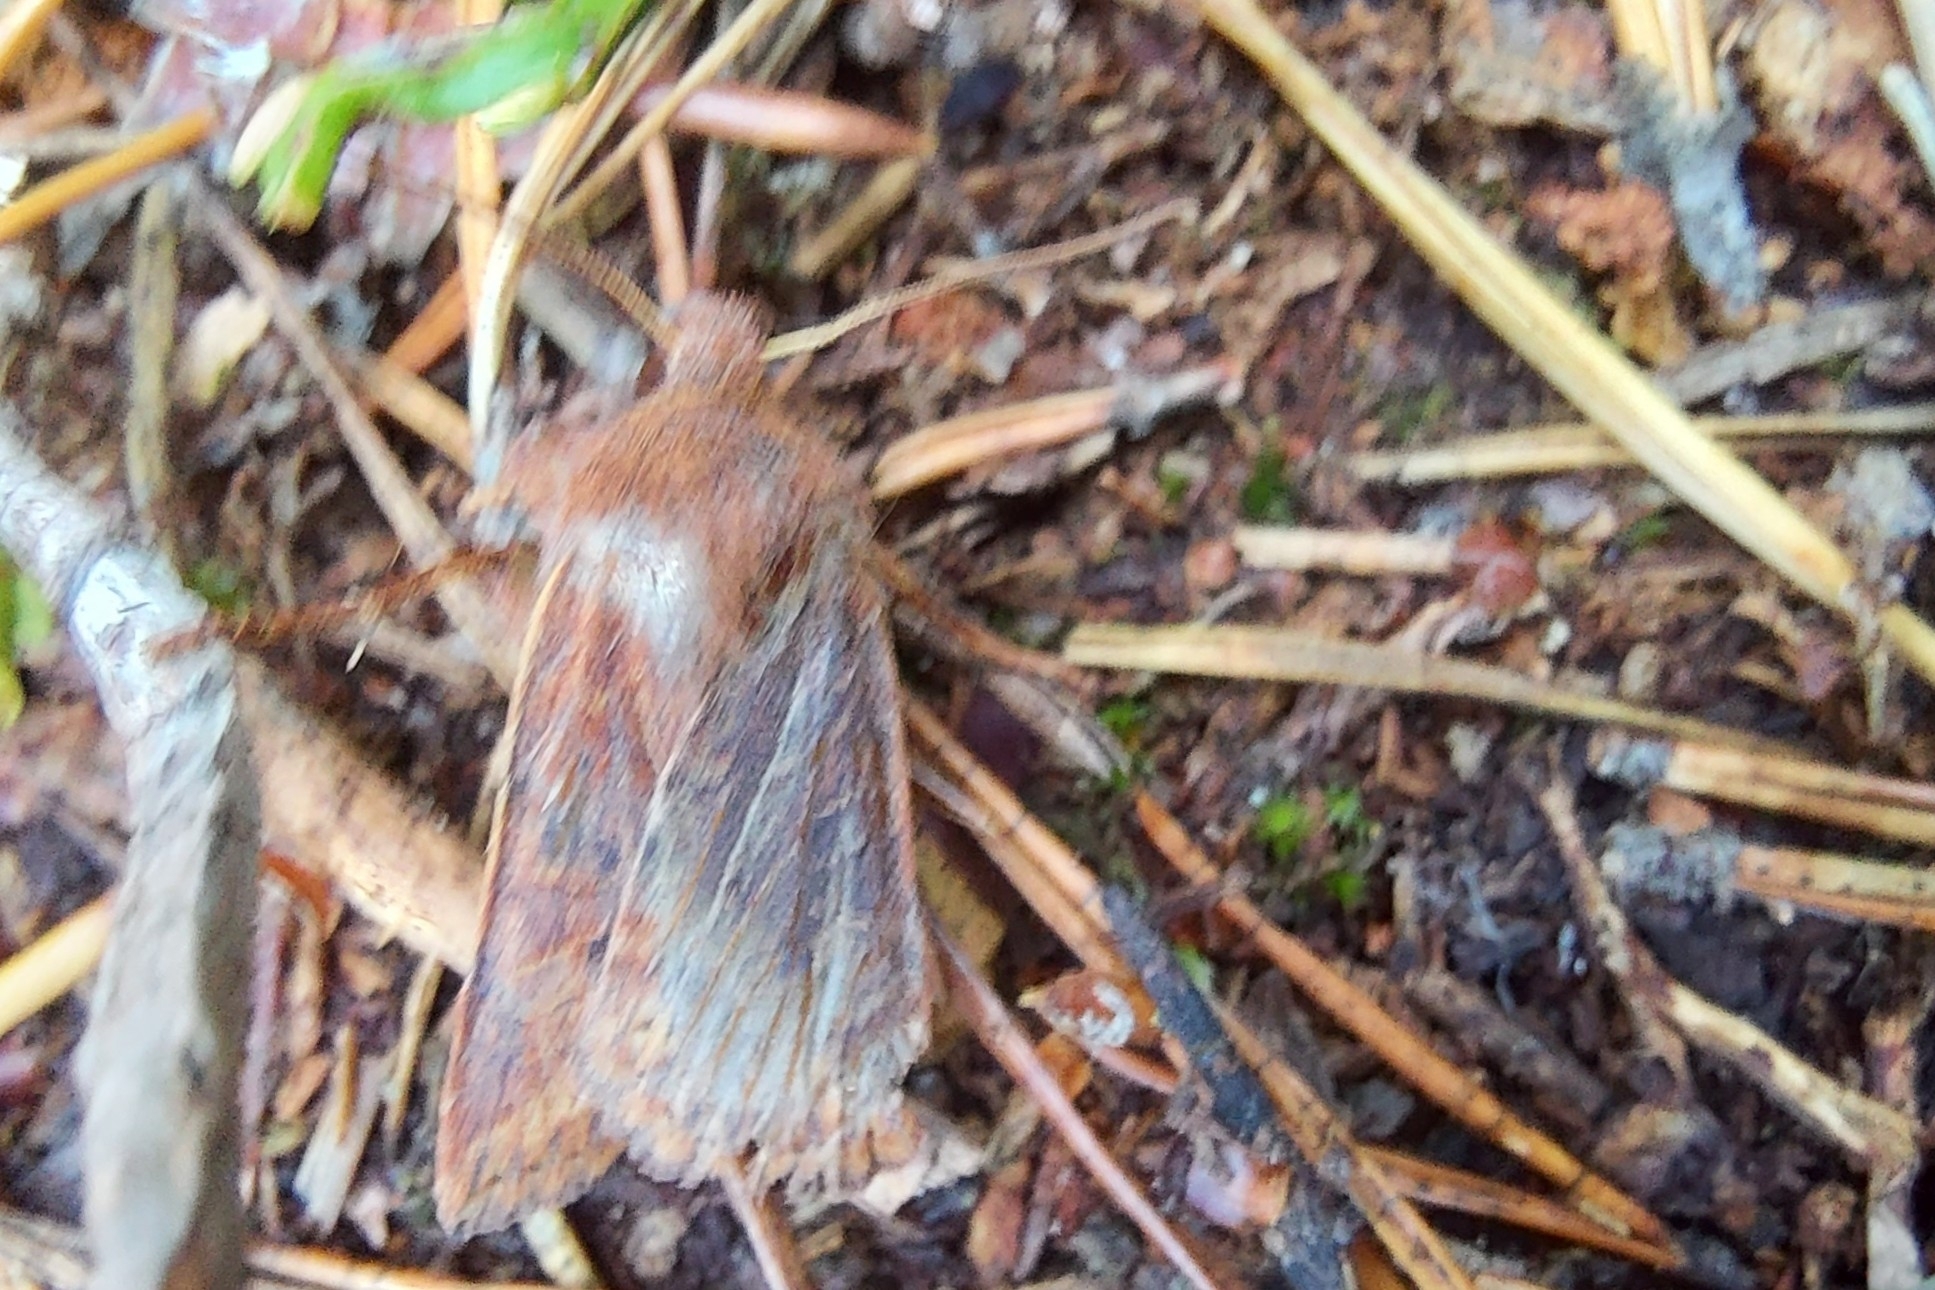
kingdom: Animalia
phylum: Arthropoda
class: Insecta
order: Lepidoptera
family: Noctuidae
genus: Conistra
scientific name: Conistra vaccinii
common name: Chestnut
